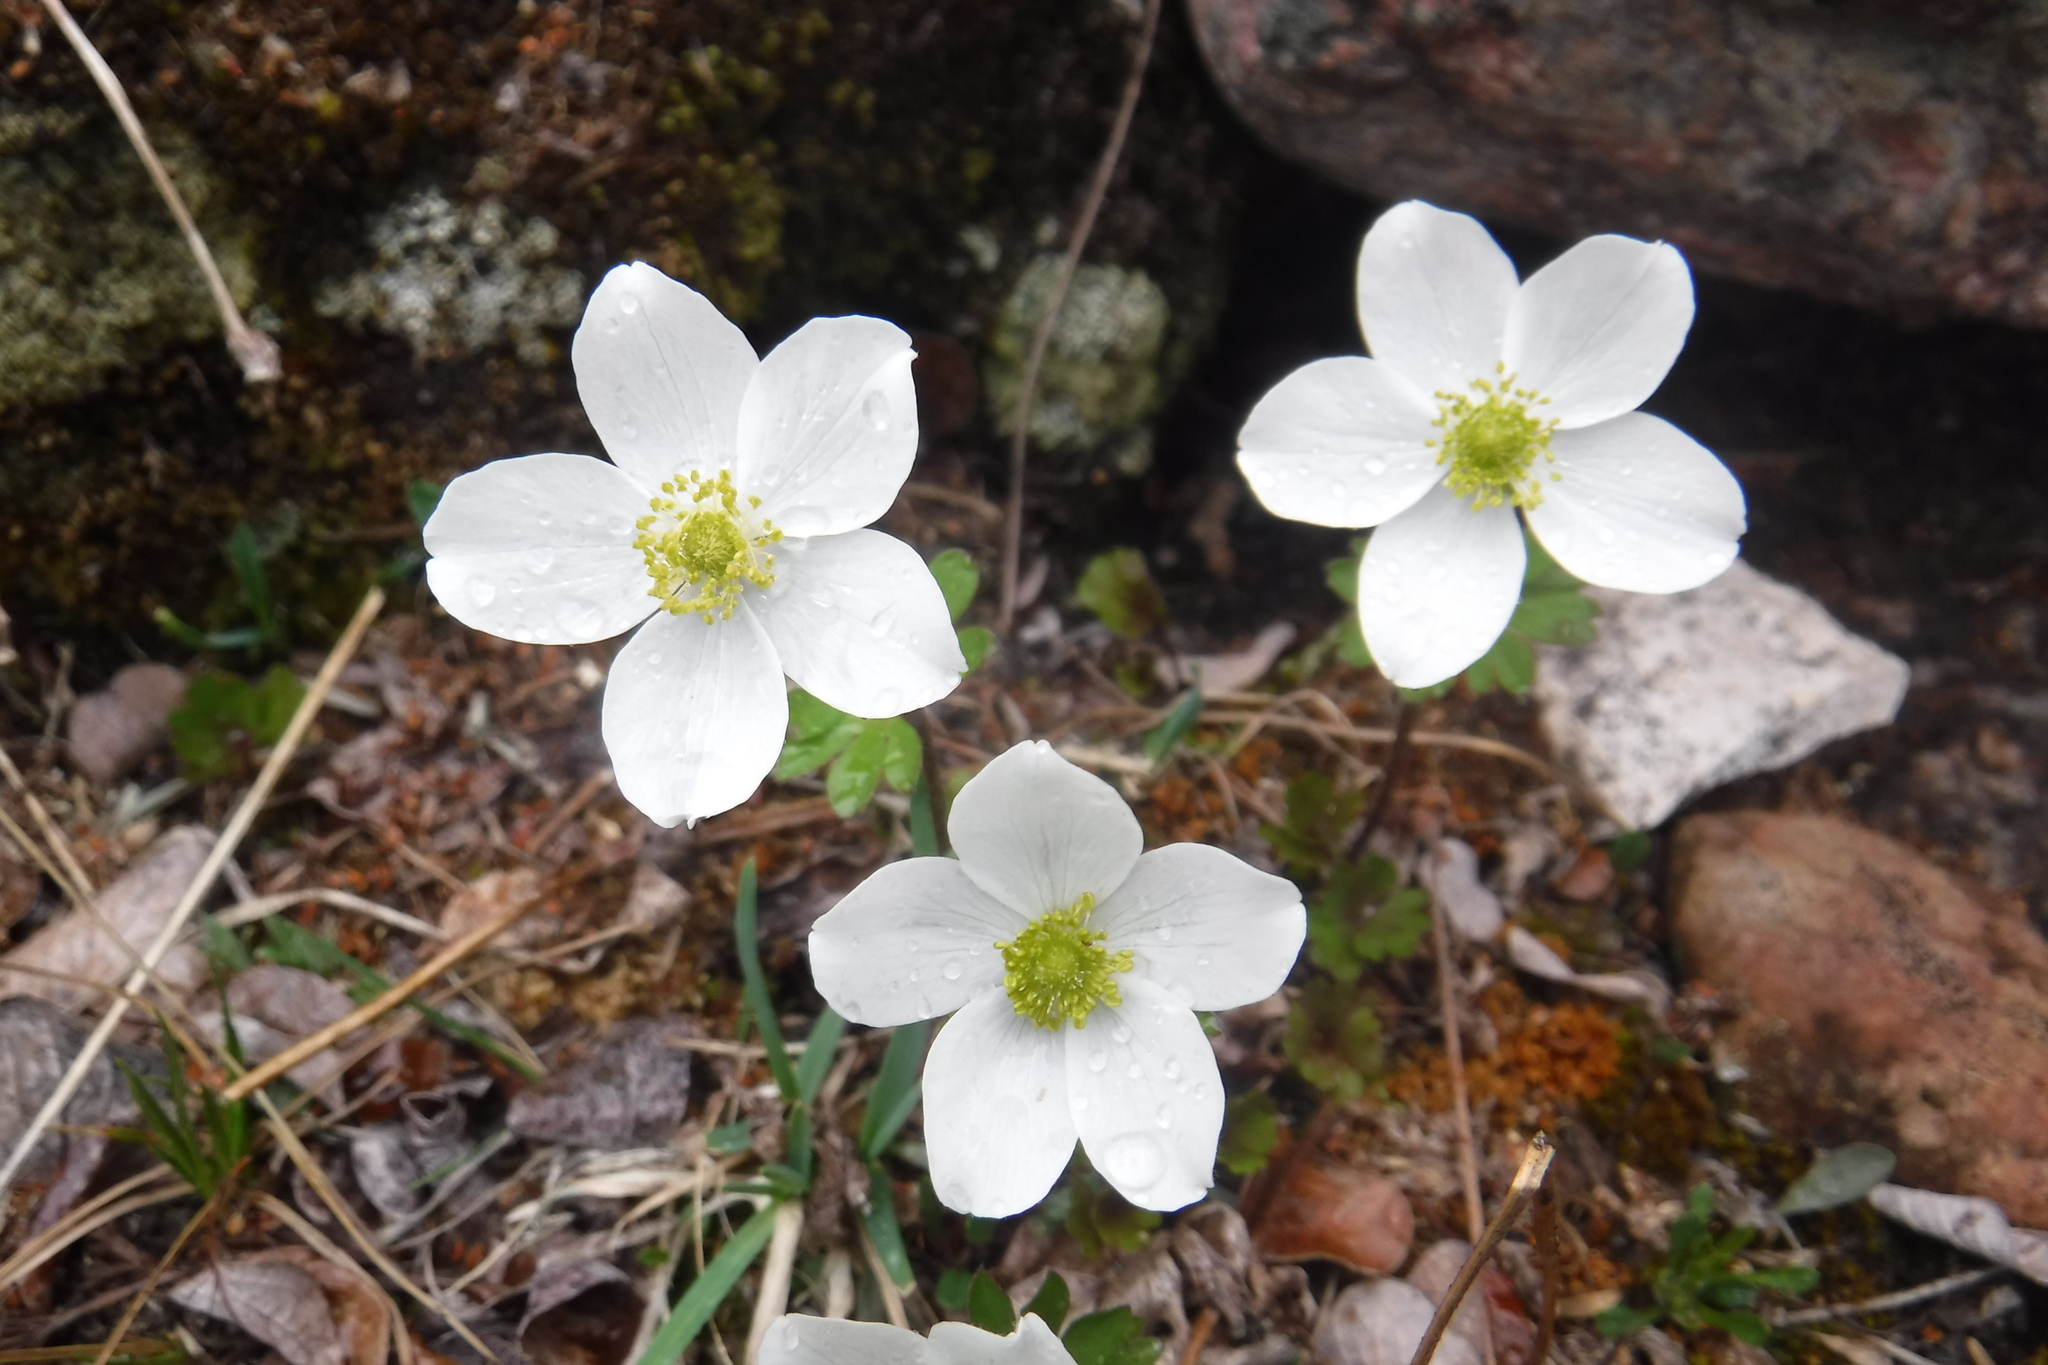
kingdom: Plantae
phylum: Tracheophyta
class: Magnoliopsida
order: Ranunculales
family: Ranunculaceae
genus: Anemone
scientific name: Anemone parviflora
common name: Northern anemone
